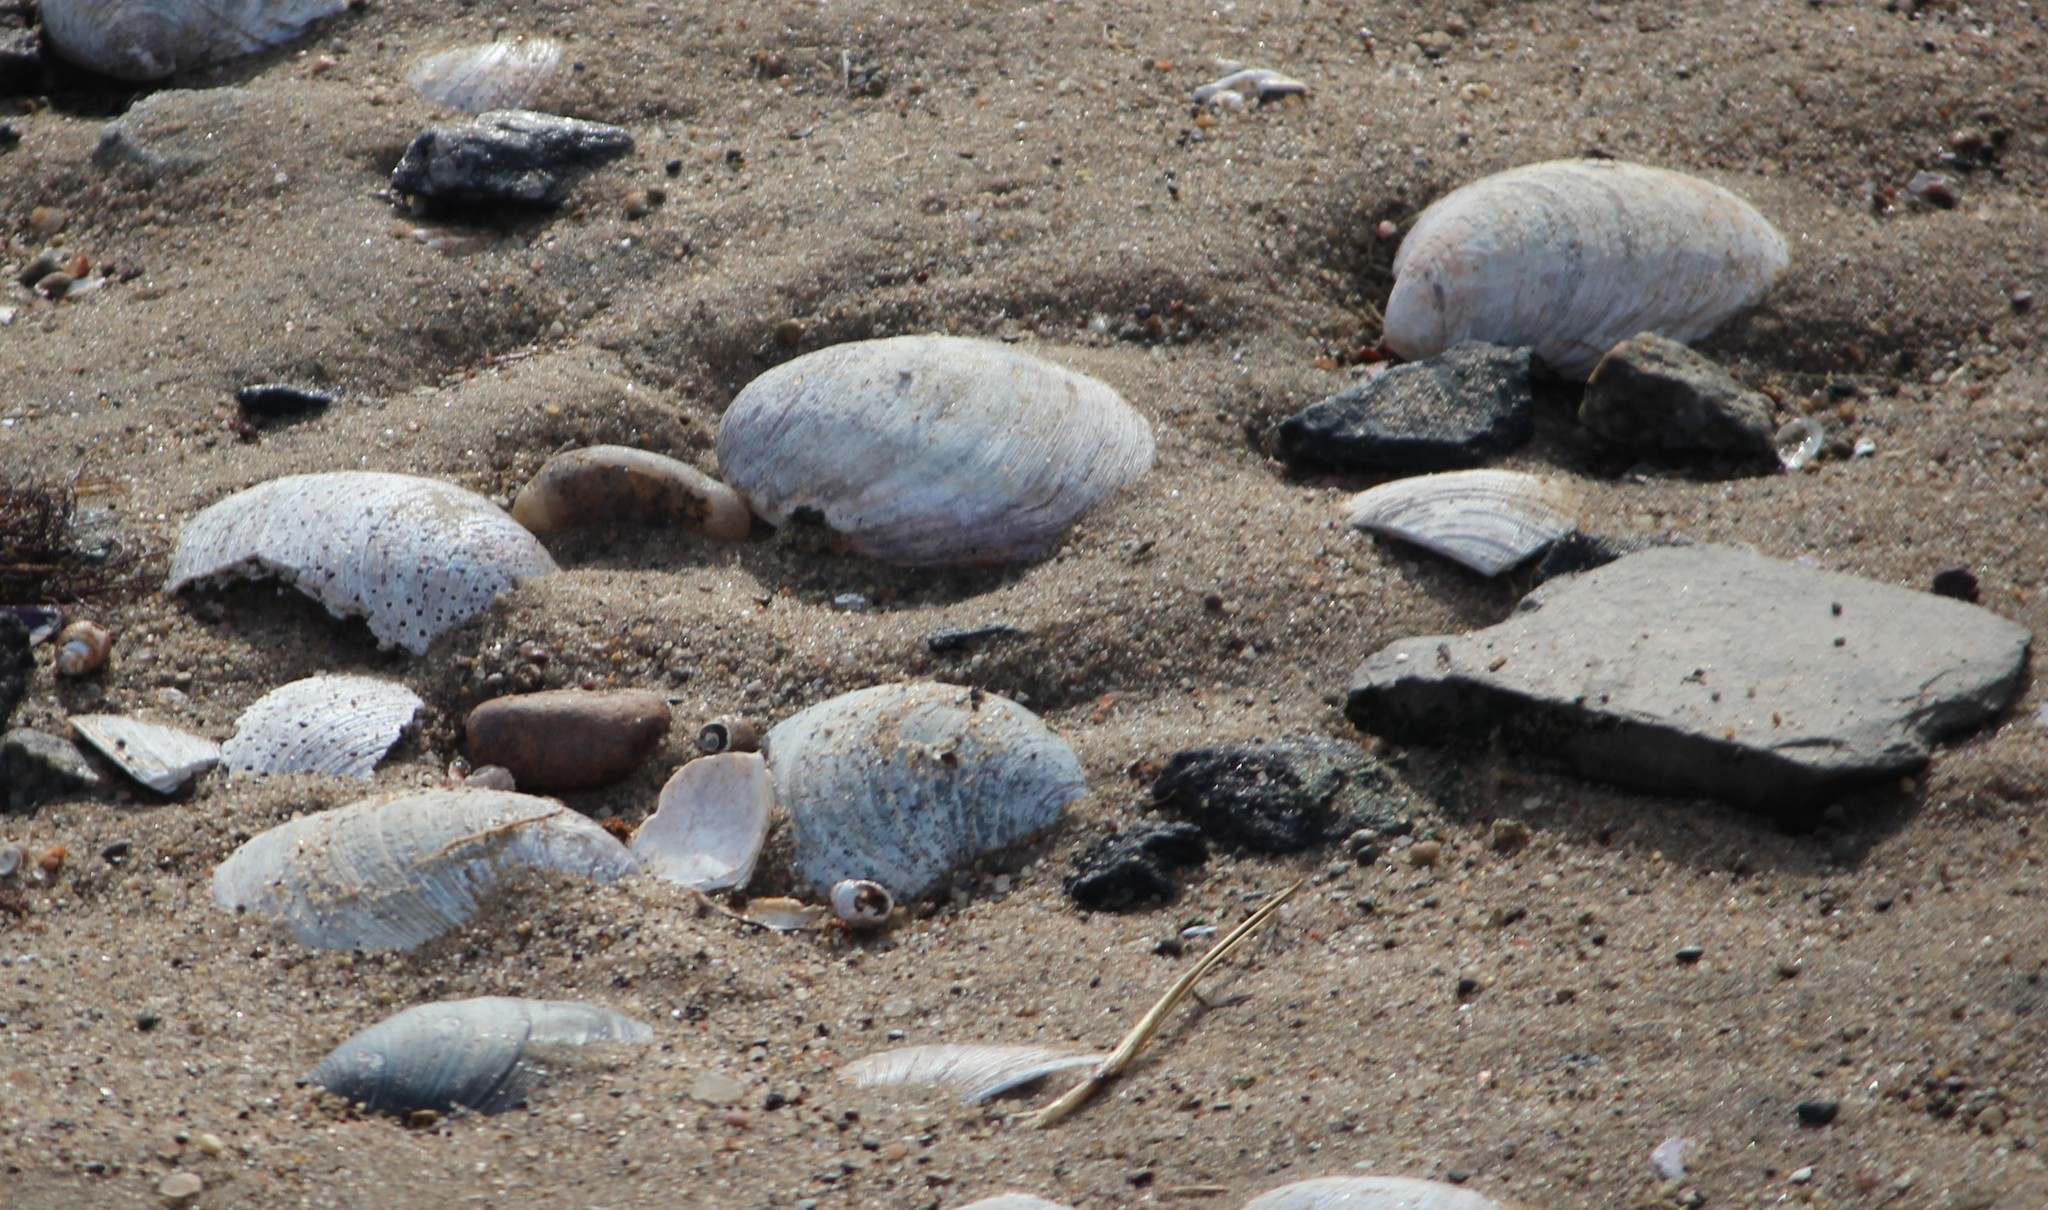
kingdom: Animalia
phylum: Mollusca
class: Bivalvia
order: Venerida
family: Veneridae
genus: Mercenaria
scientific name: Mercenaria mercenaria
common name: American hard-shelled clam
